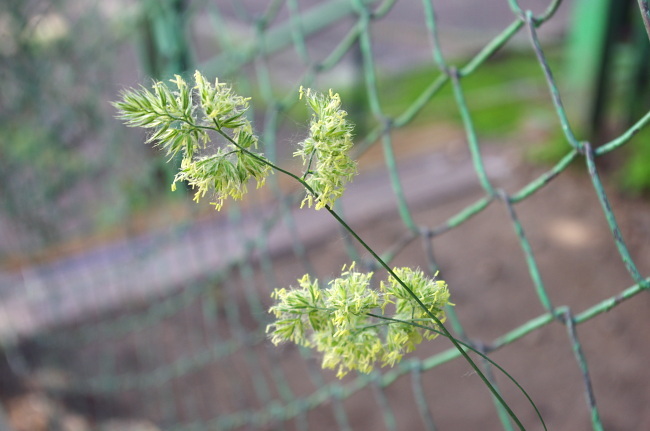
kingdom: Plantae
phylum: Tracheophyta
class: Liliopsida
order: Poales
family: Poaceae
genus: Dactylis
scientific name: Dactylis glomerata
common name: Orchardgrass
